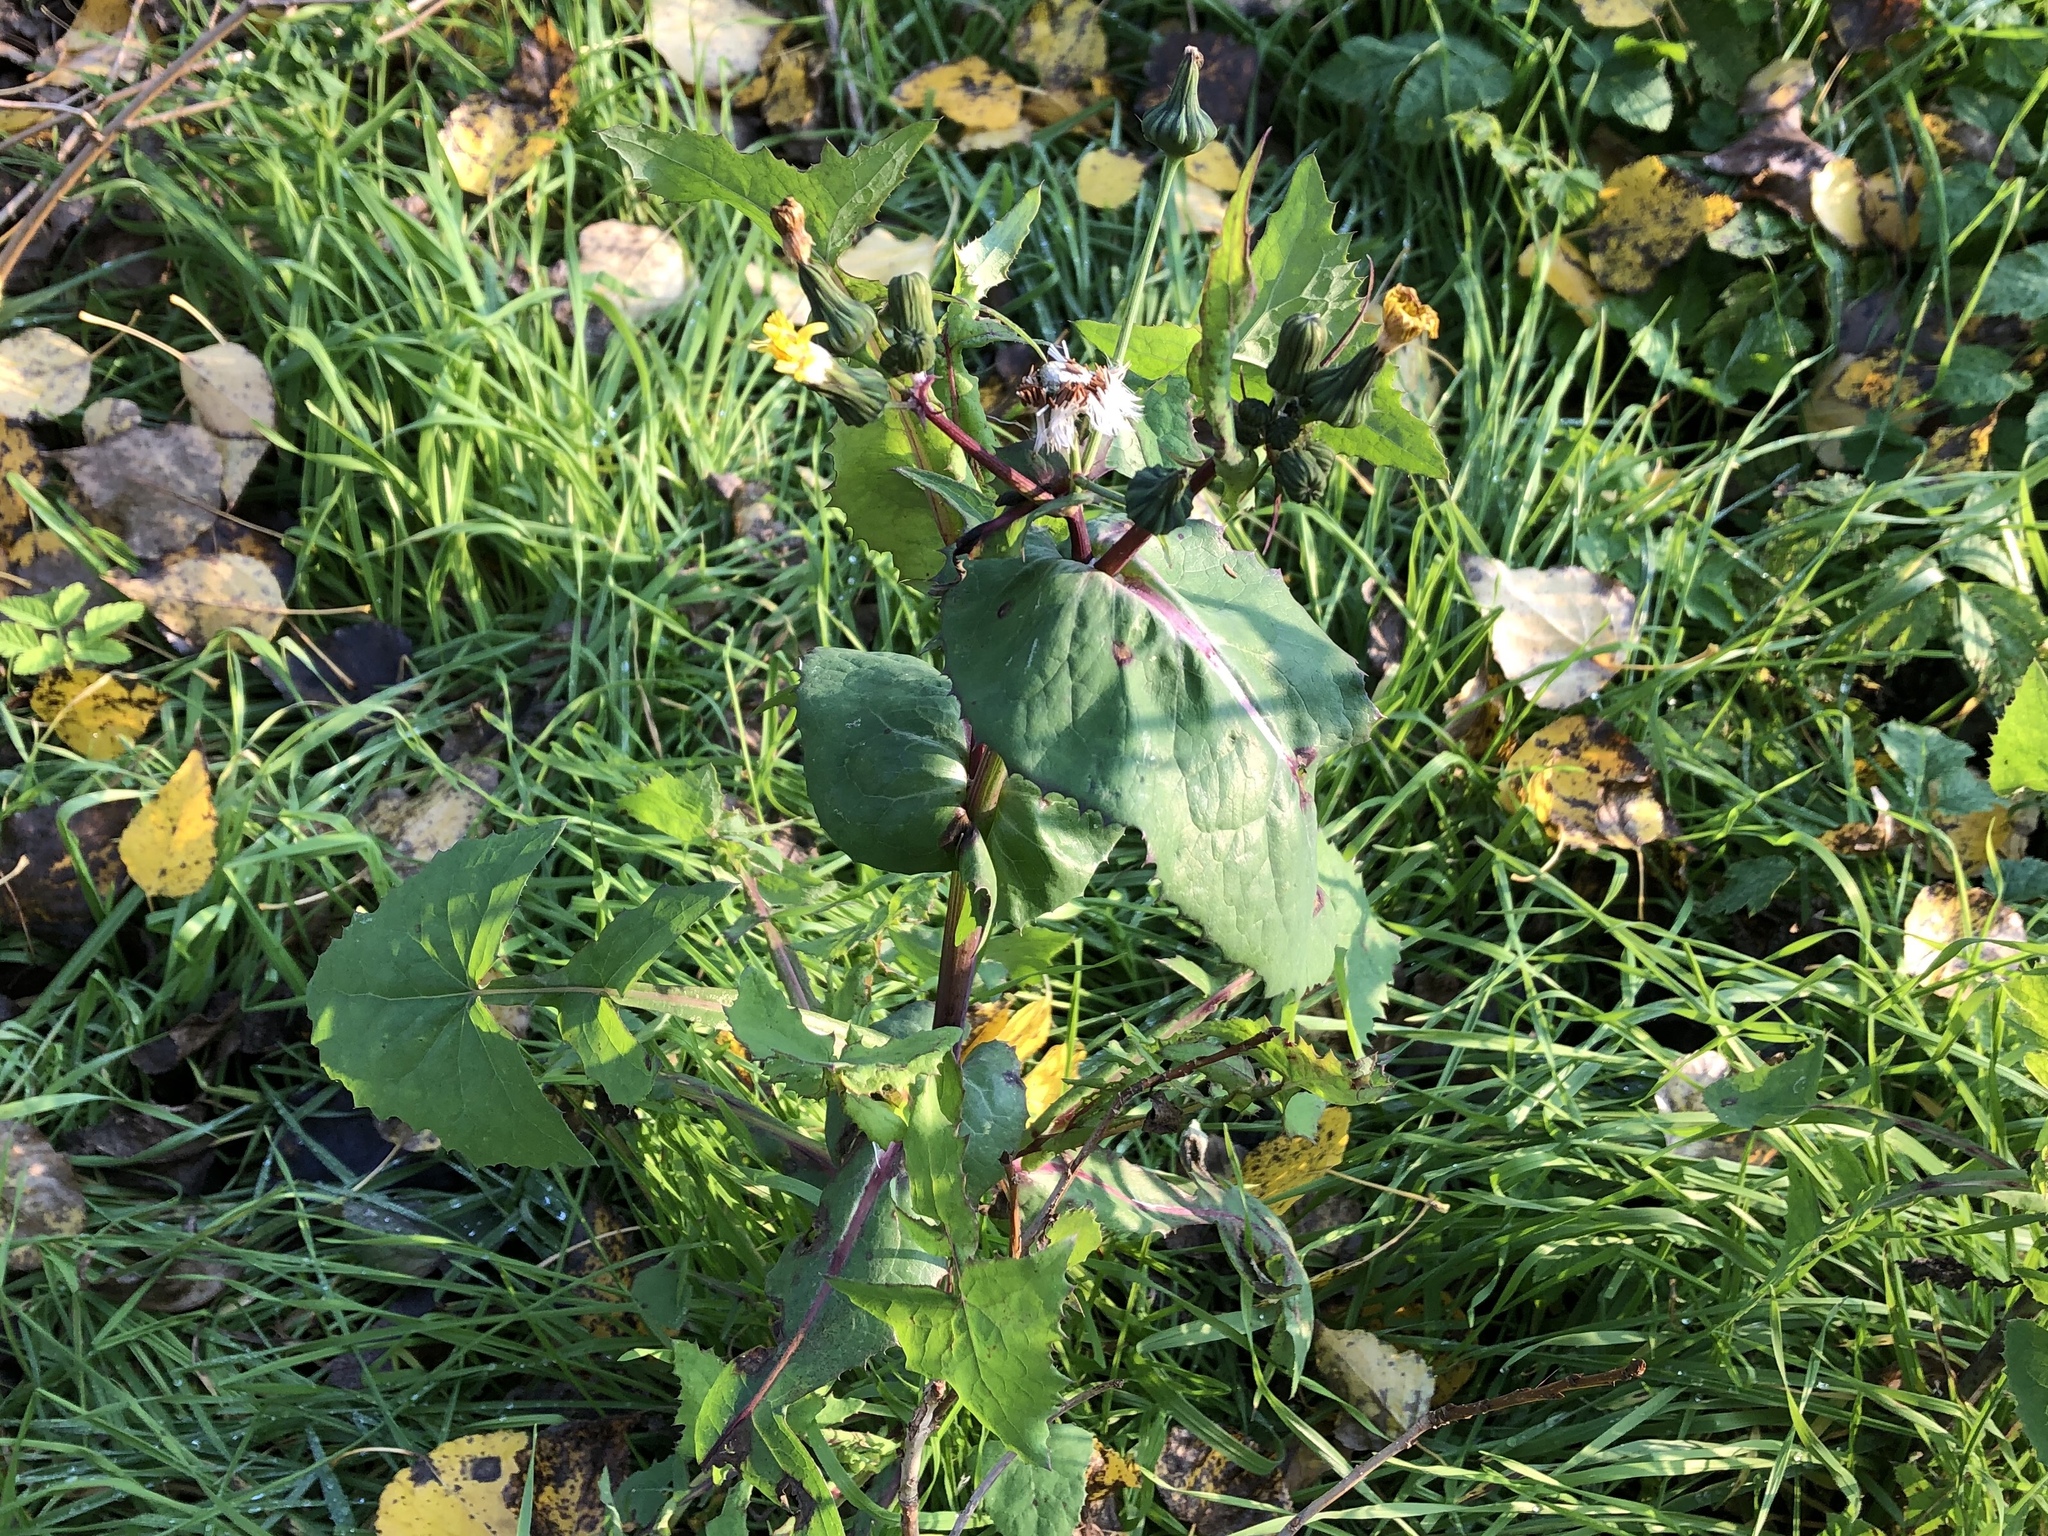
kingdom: Plantae
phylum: Tracheophyta
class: Magnoliopsida
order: Asterales
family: Asteraceae
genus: Sonchus
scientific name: Sonchus oleraceus
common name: Common sowthistle
